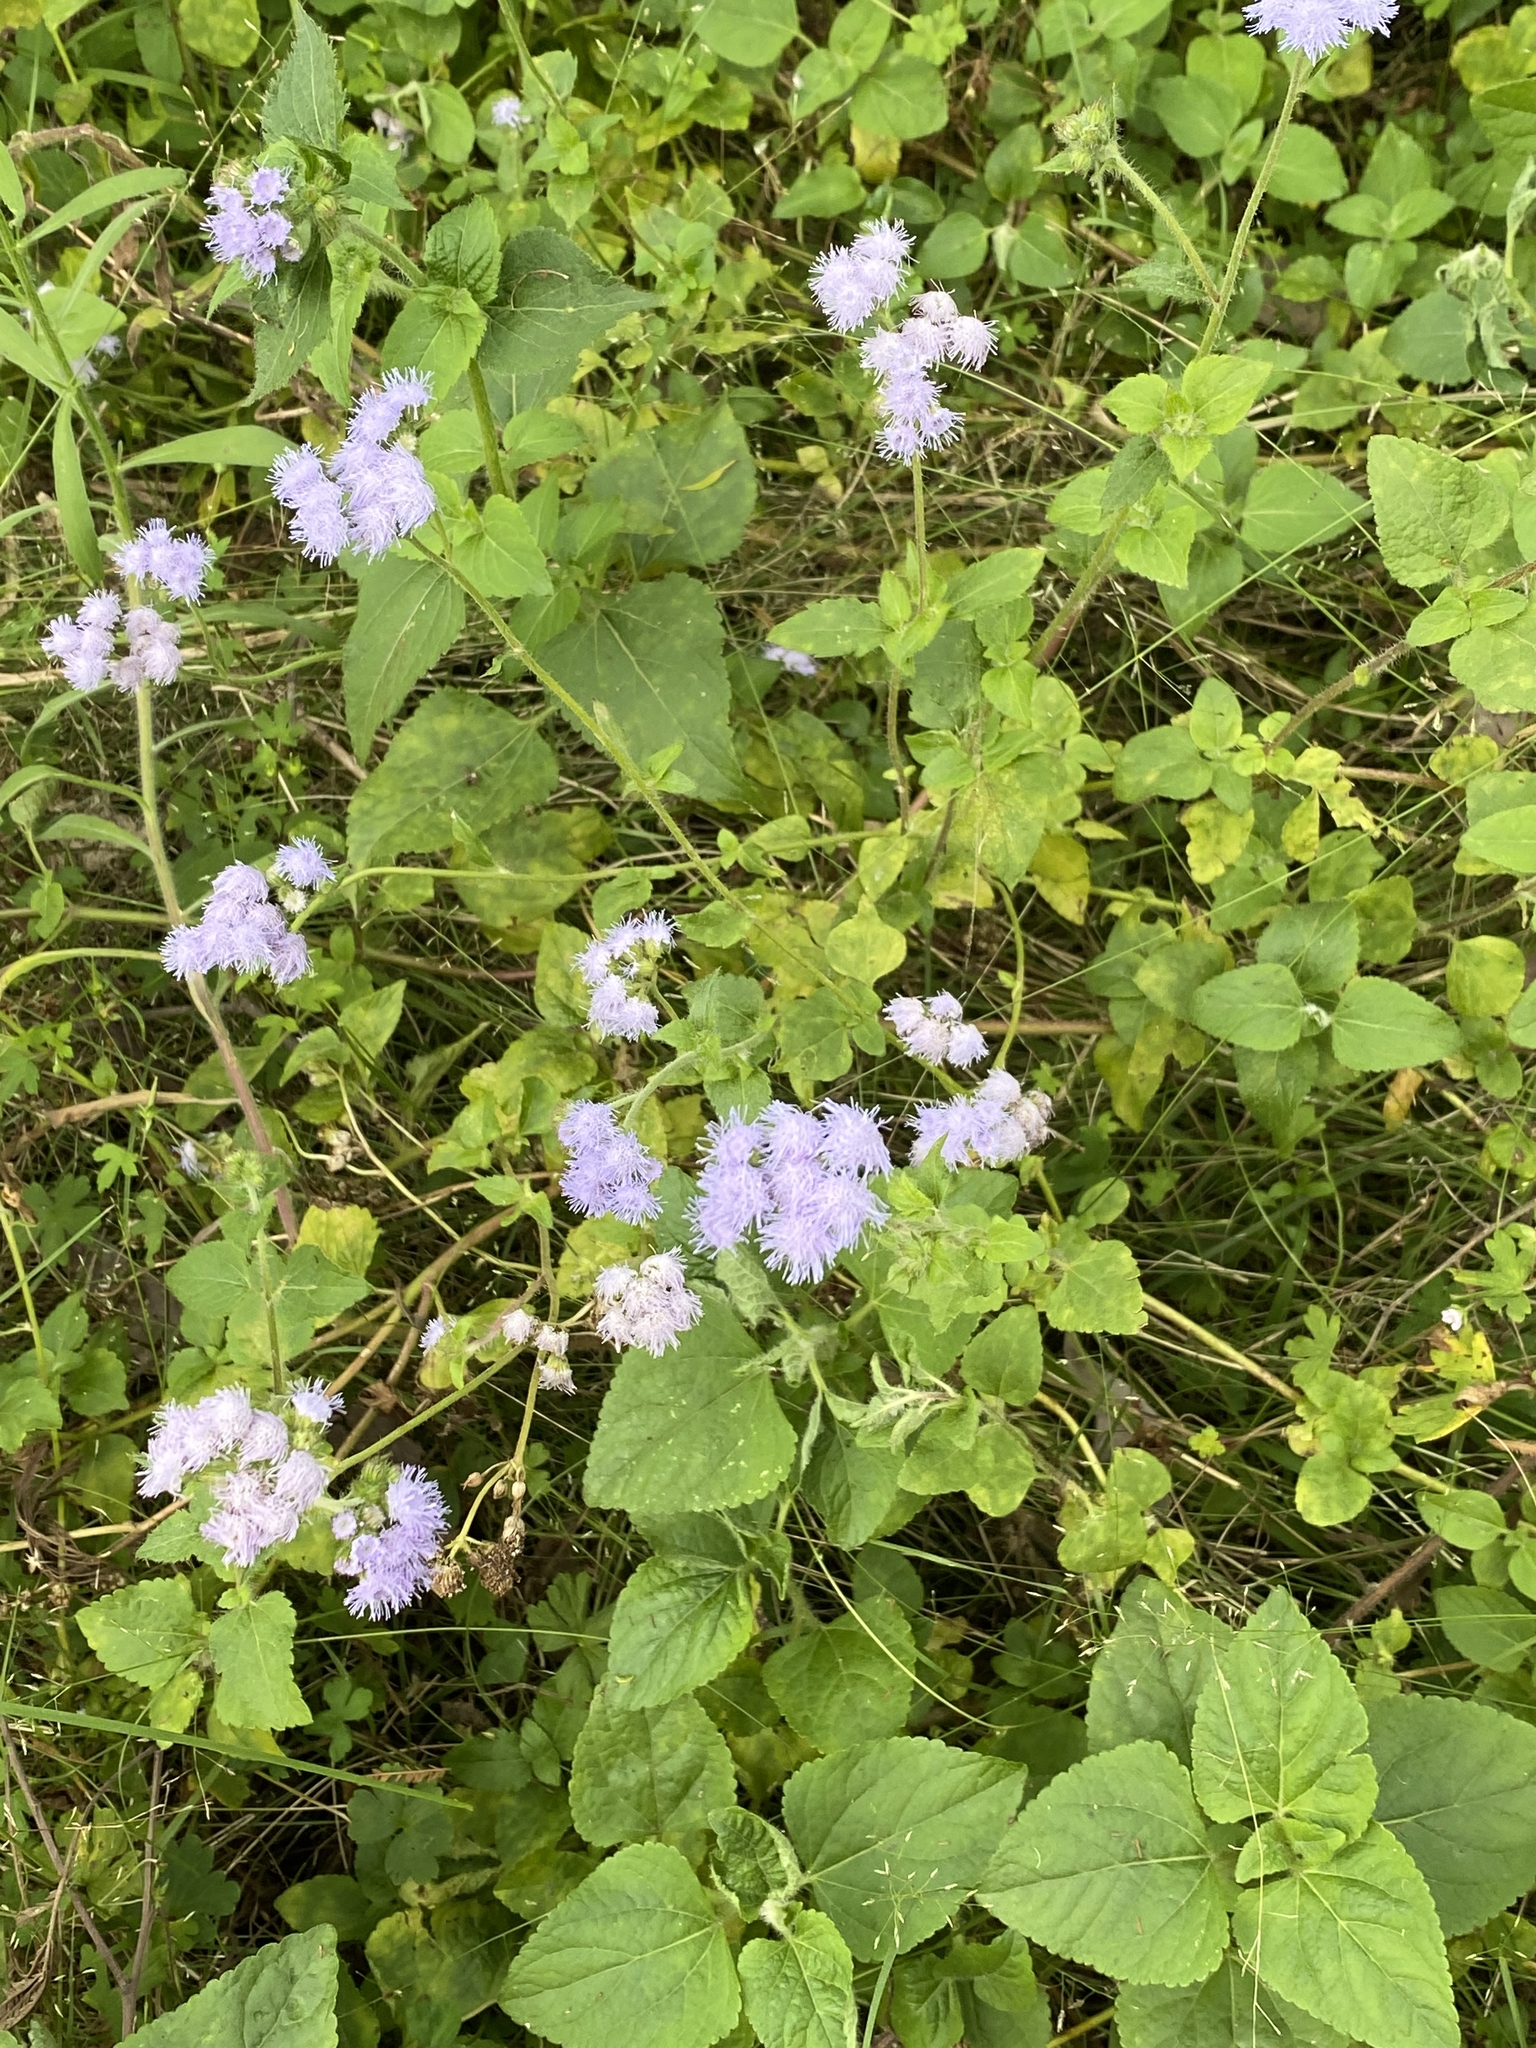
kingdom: Plantae
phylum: Tracheophyta
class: Magnoliopsida
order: Asterales
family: Asteraceae
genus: Ageratum
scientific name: Ageratum conyzoides
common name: Tropical whiteweed
